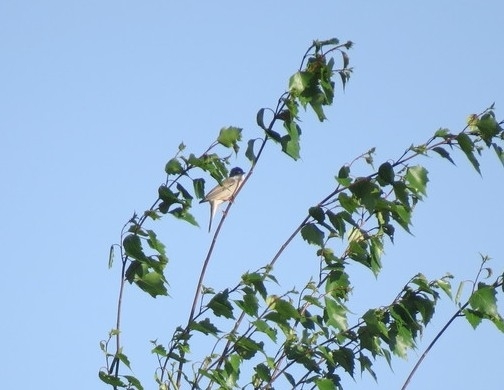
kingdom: Animalia
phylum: Chordata
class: Aves
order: Passeriformes
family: Sylviidae
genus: Sylvia
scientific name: Sylvia communis
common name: Common whitethroat
